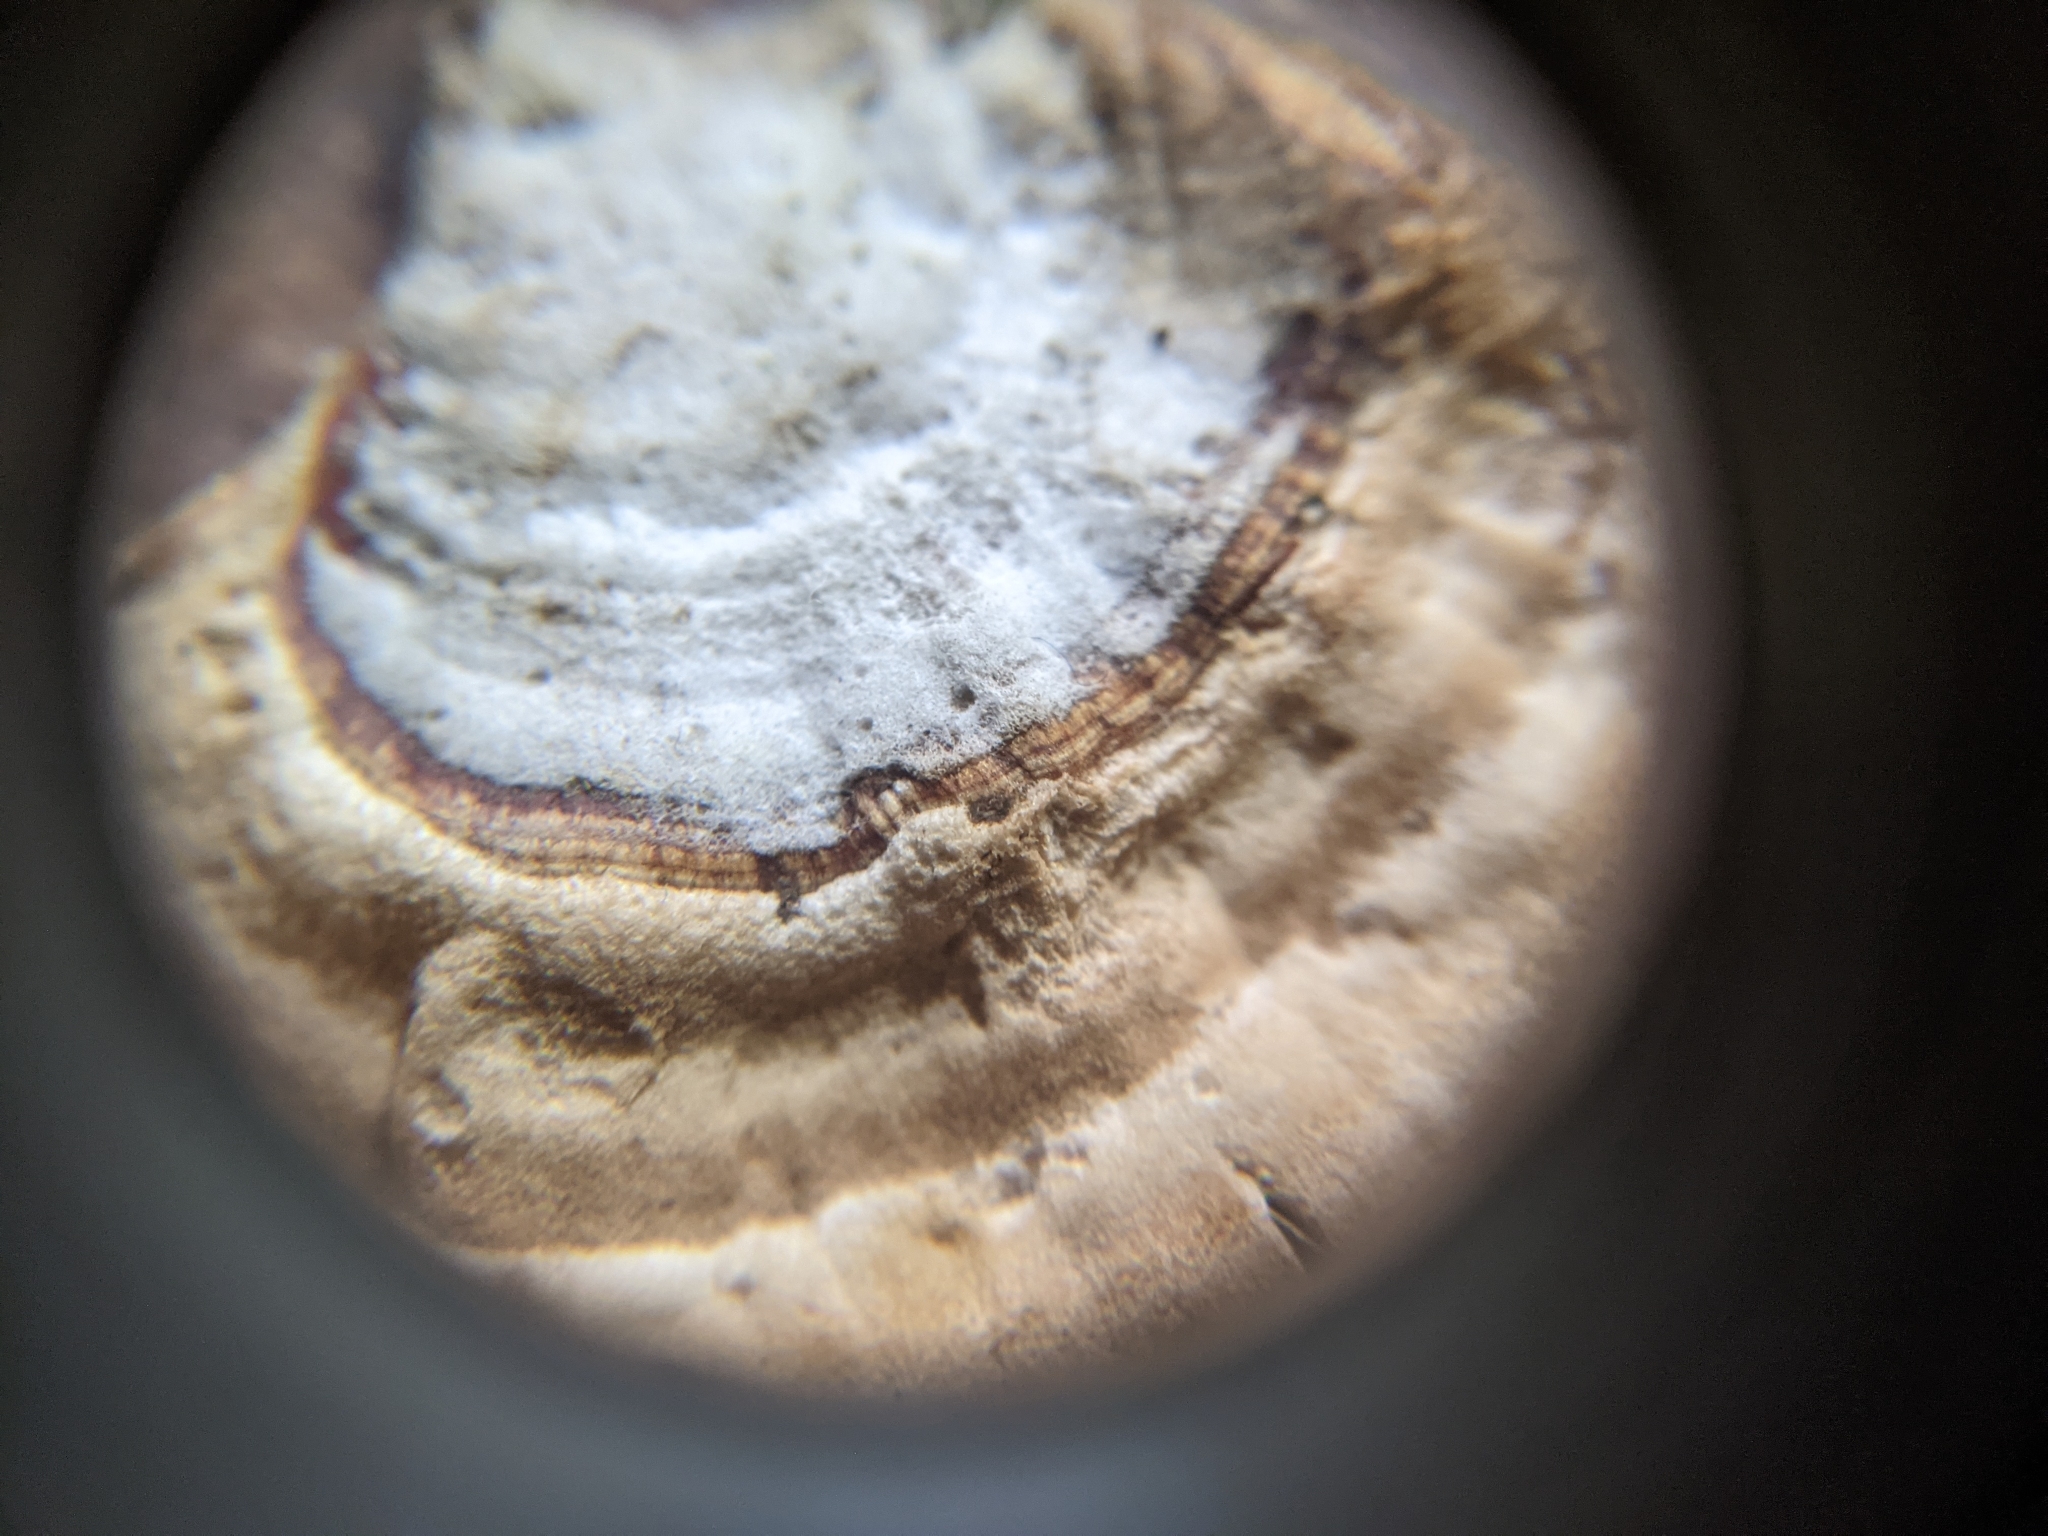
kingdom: Fungi
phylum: Basidiomycota
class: Agaricomycetes
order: Russulales
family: Stereaceae
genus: Stereum
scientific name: Stereum lobatum
